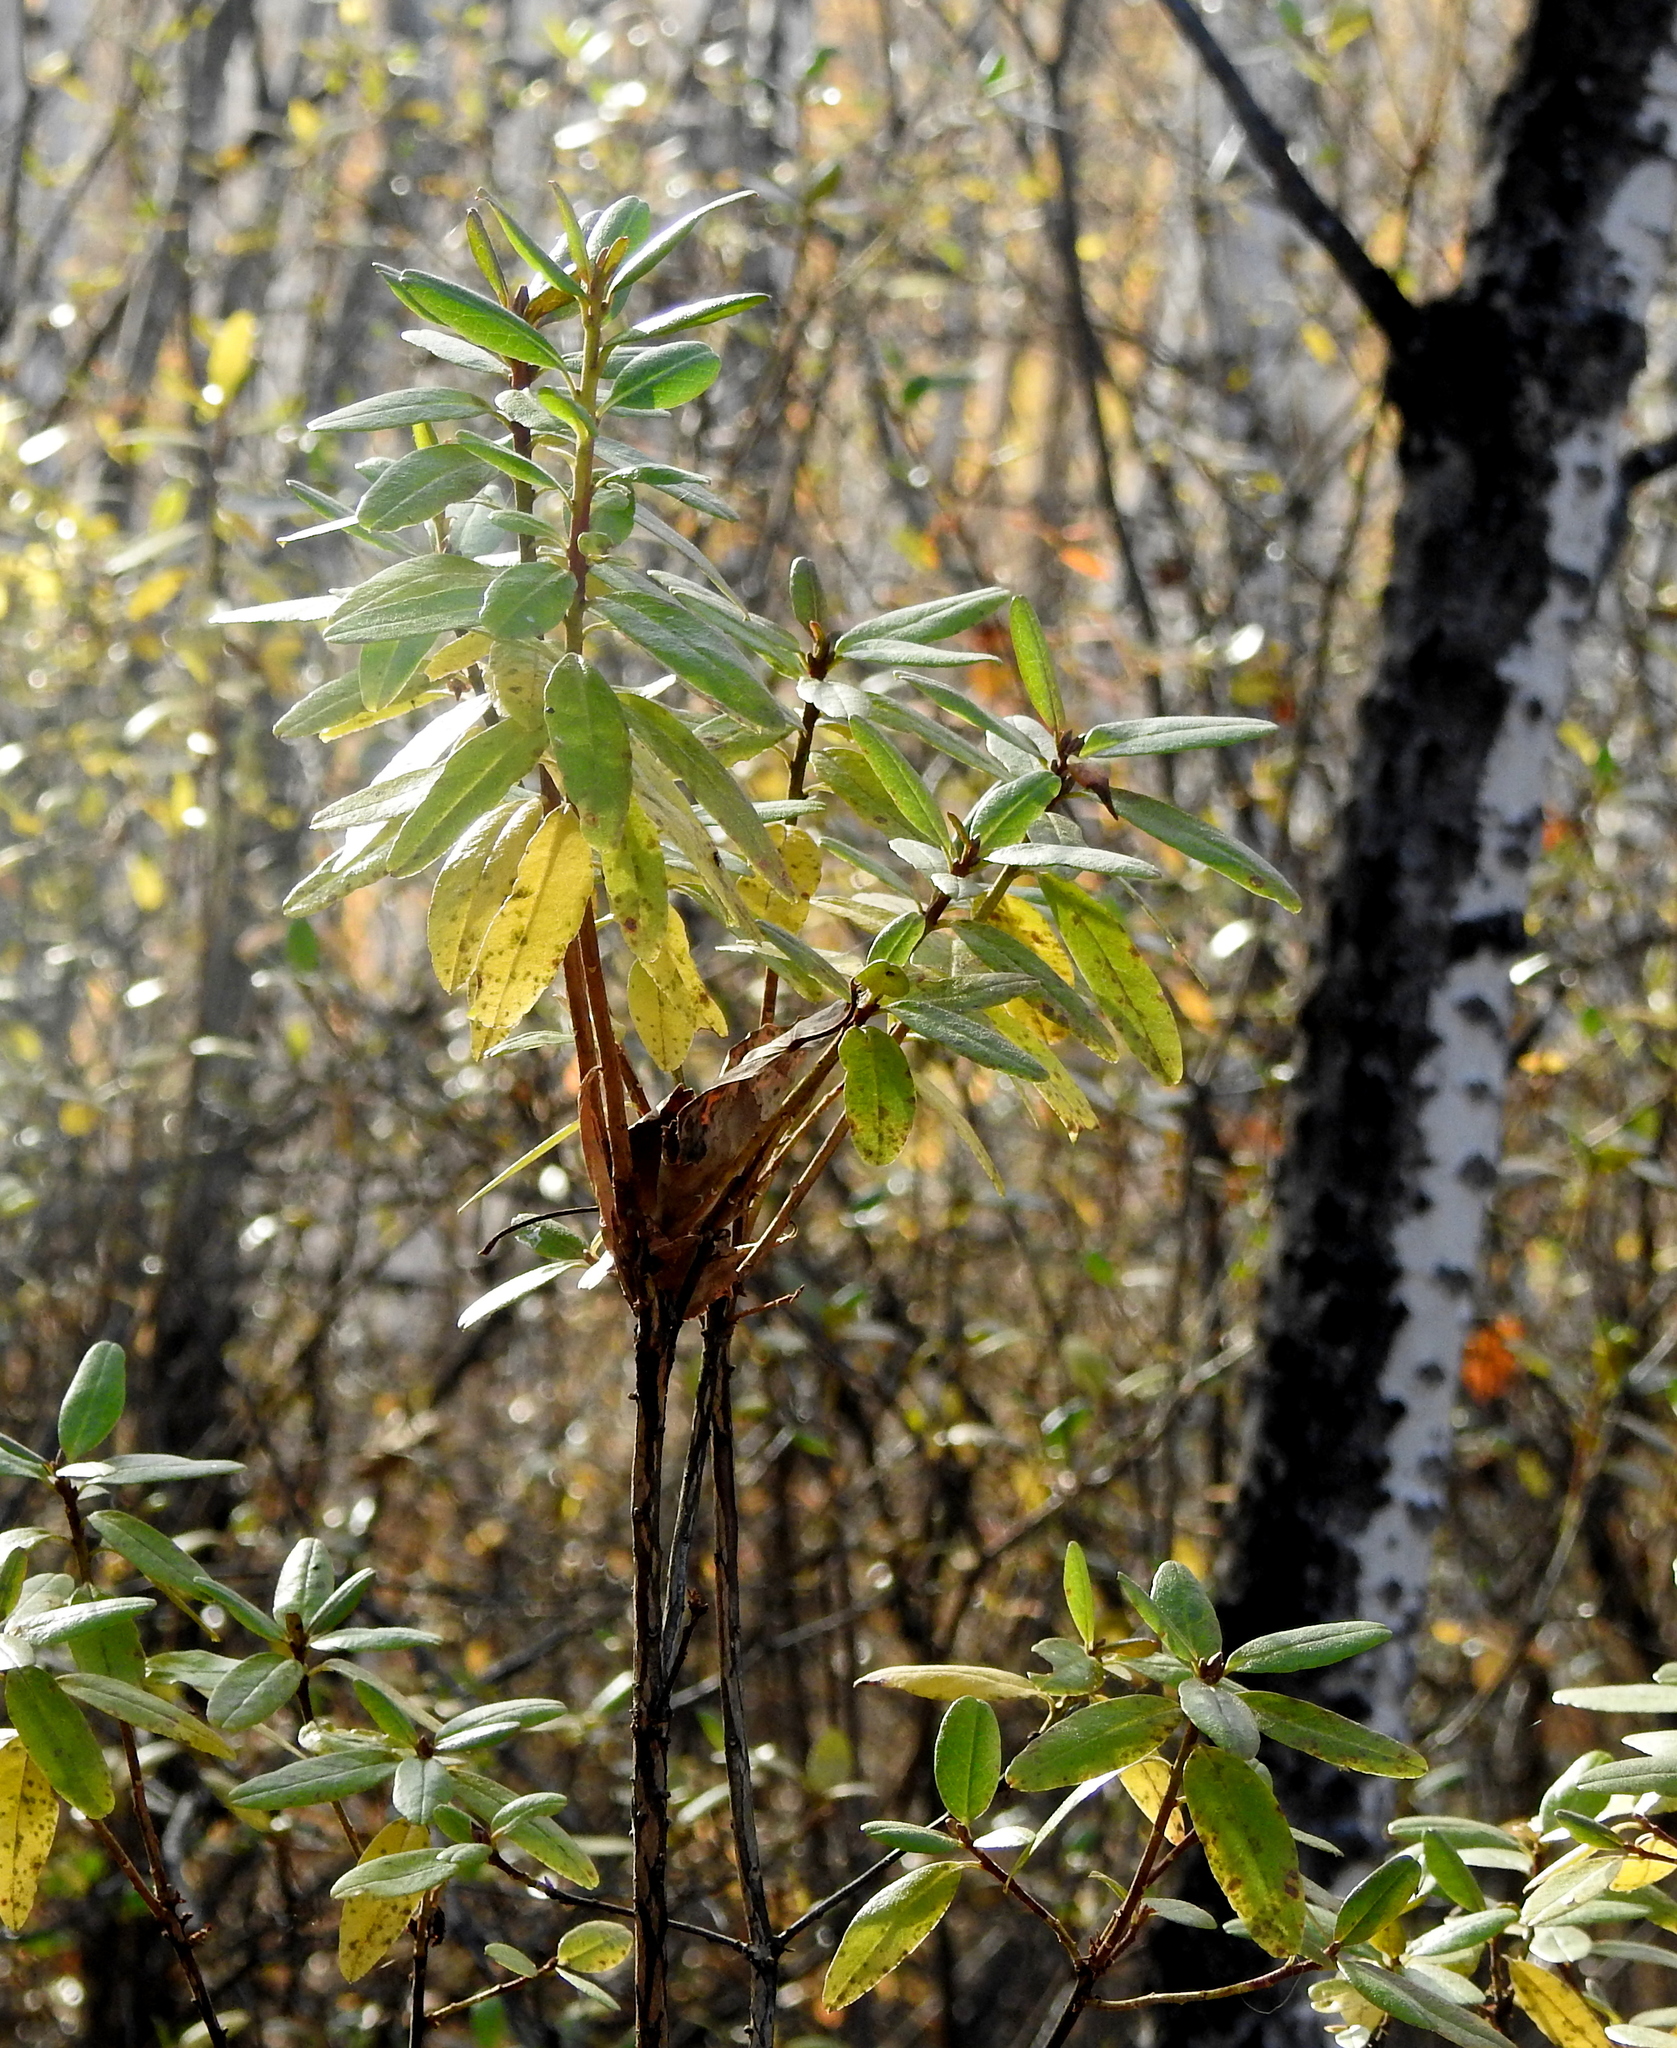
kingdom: Plantae
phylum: Tracheophyta
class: Magnoliopsida
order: Ericales
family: Ericaceae
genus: Rhododendron
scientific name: Rhododendron dauricum
